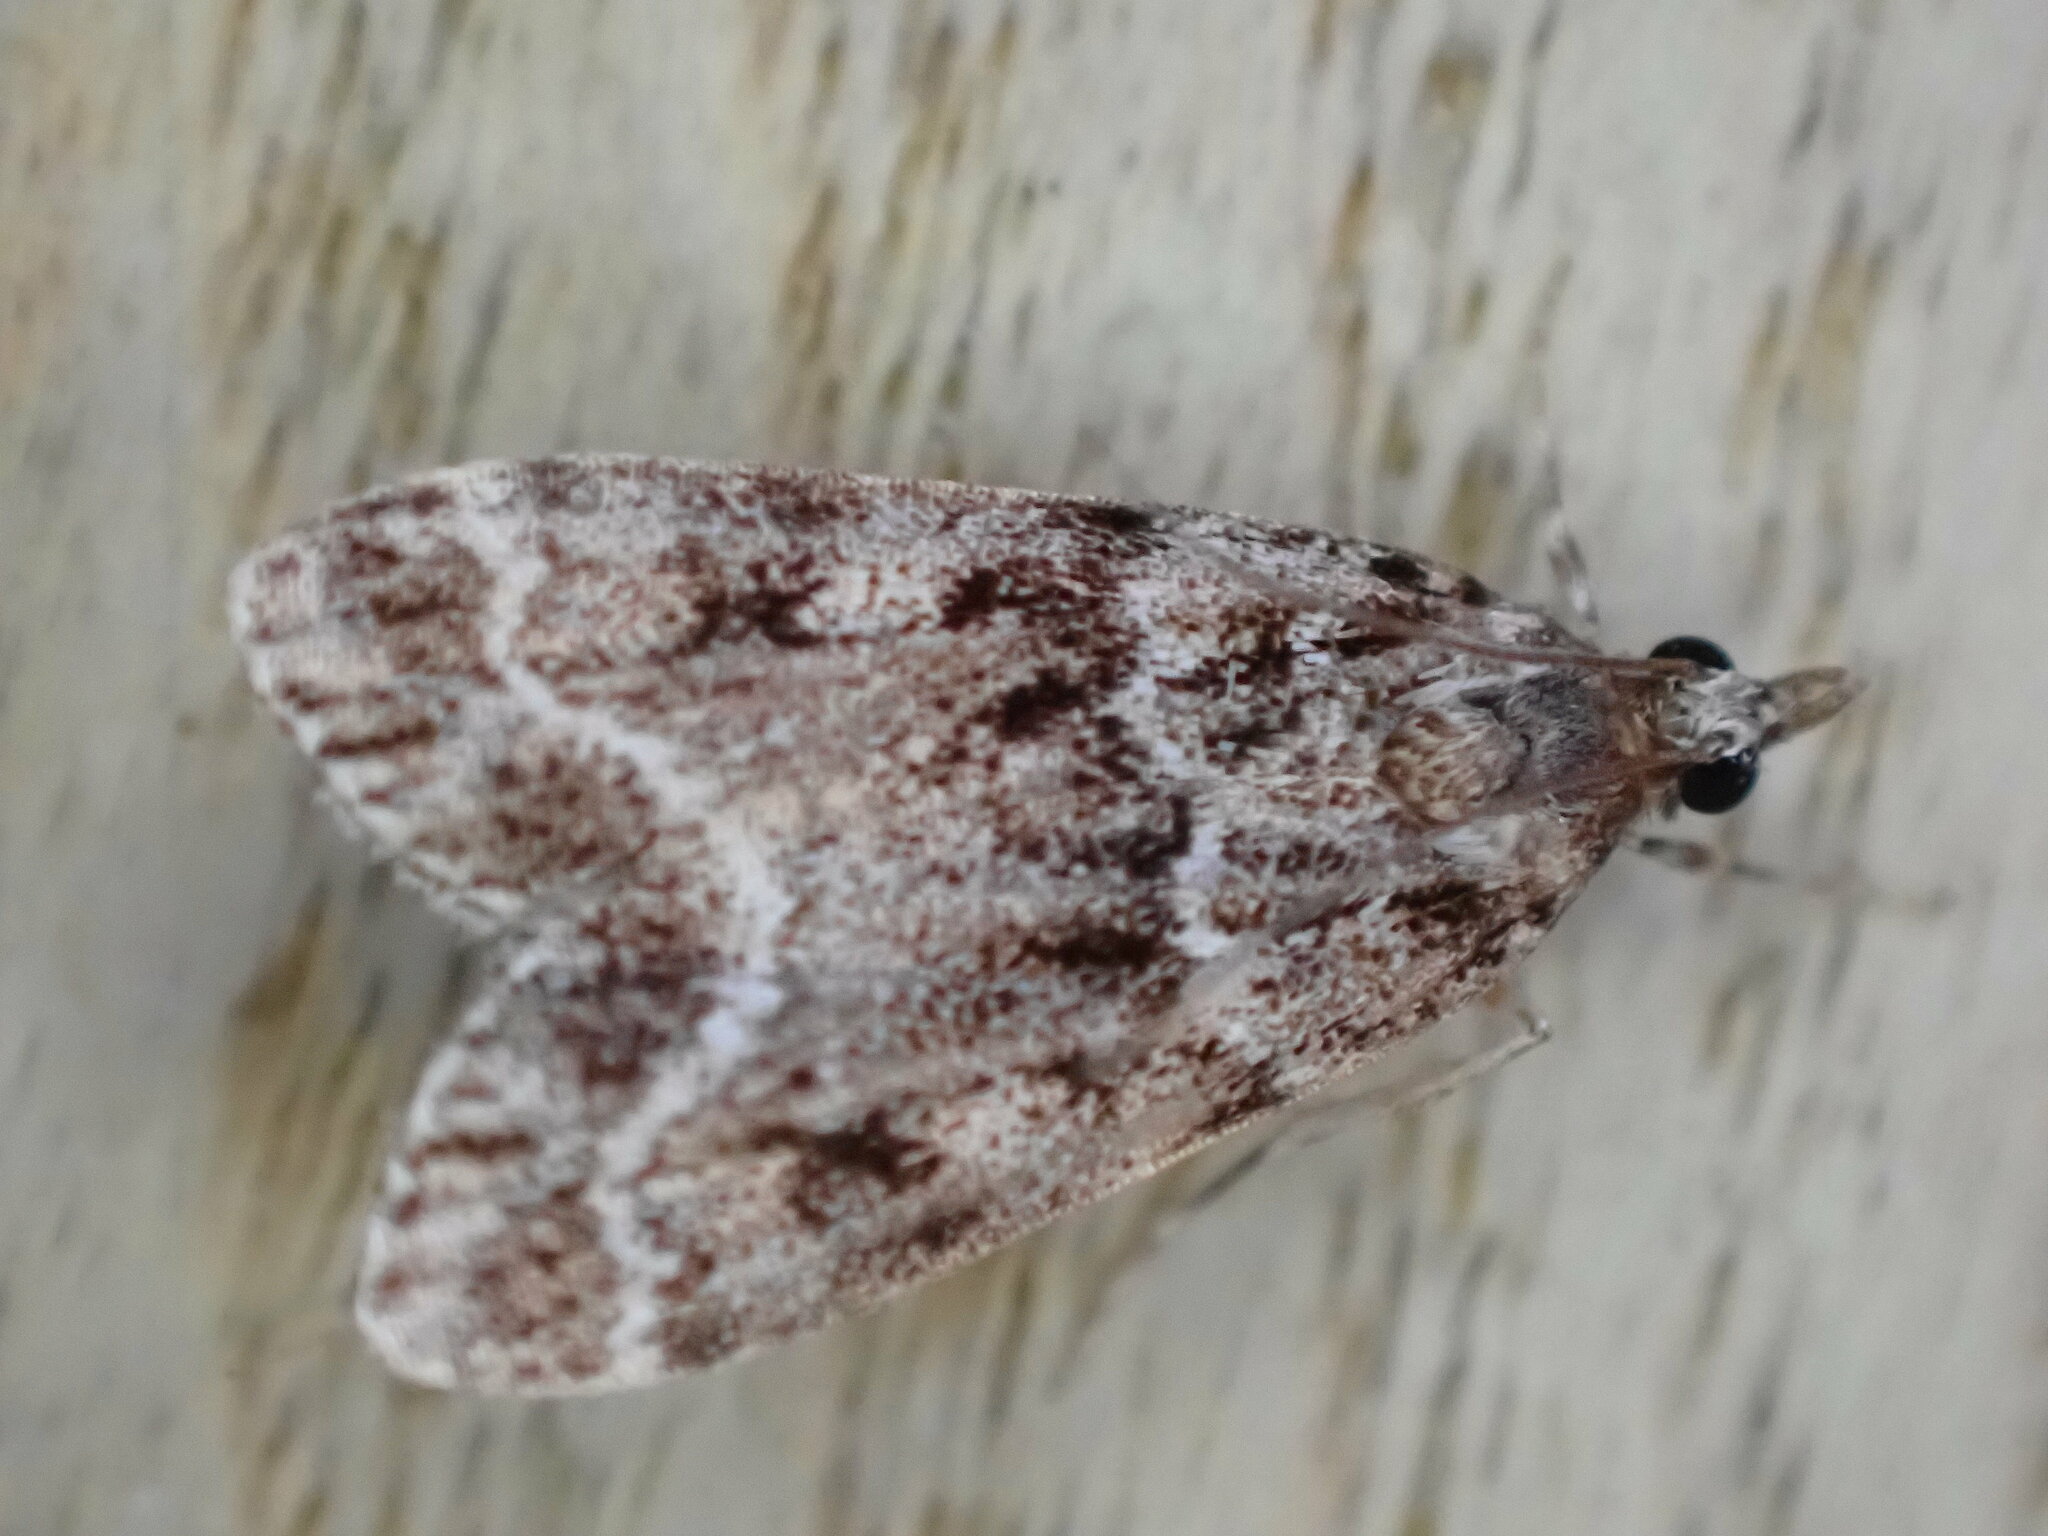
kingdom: Animalia
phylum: Arthropoda
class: Insecta
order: Lepidoptera
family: Crambidae
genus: Eudonia
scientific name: Eudonia mercurella
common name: Small grey
